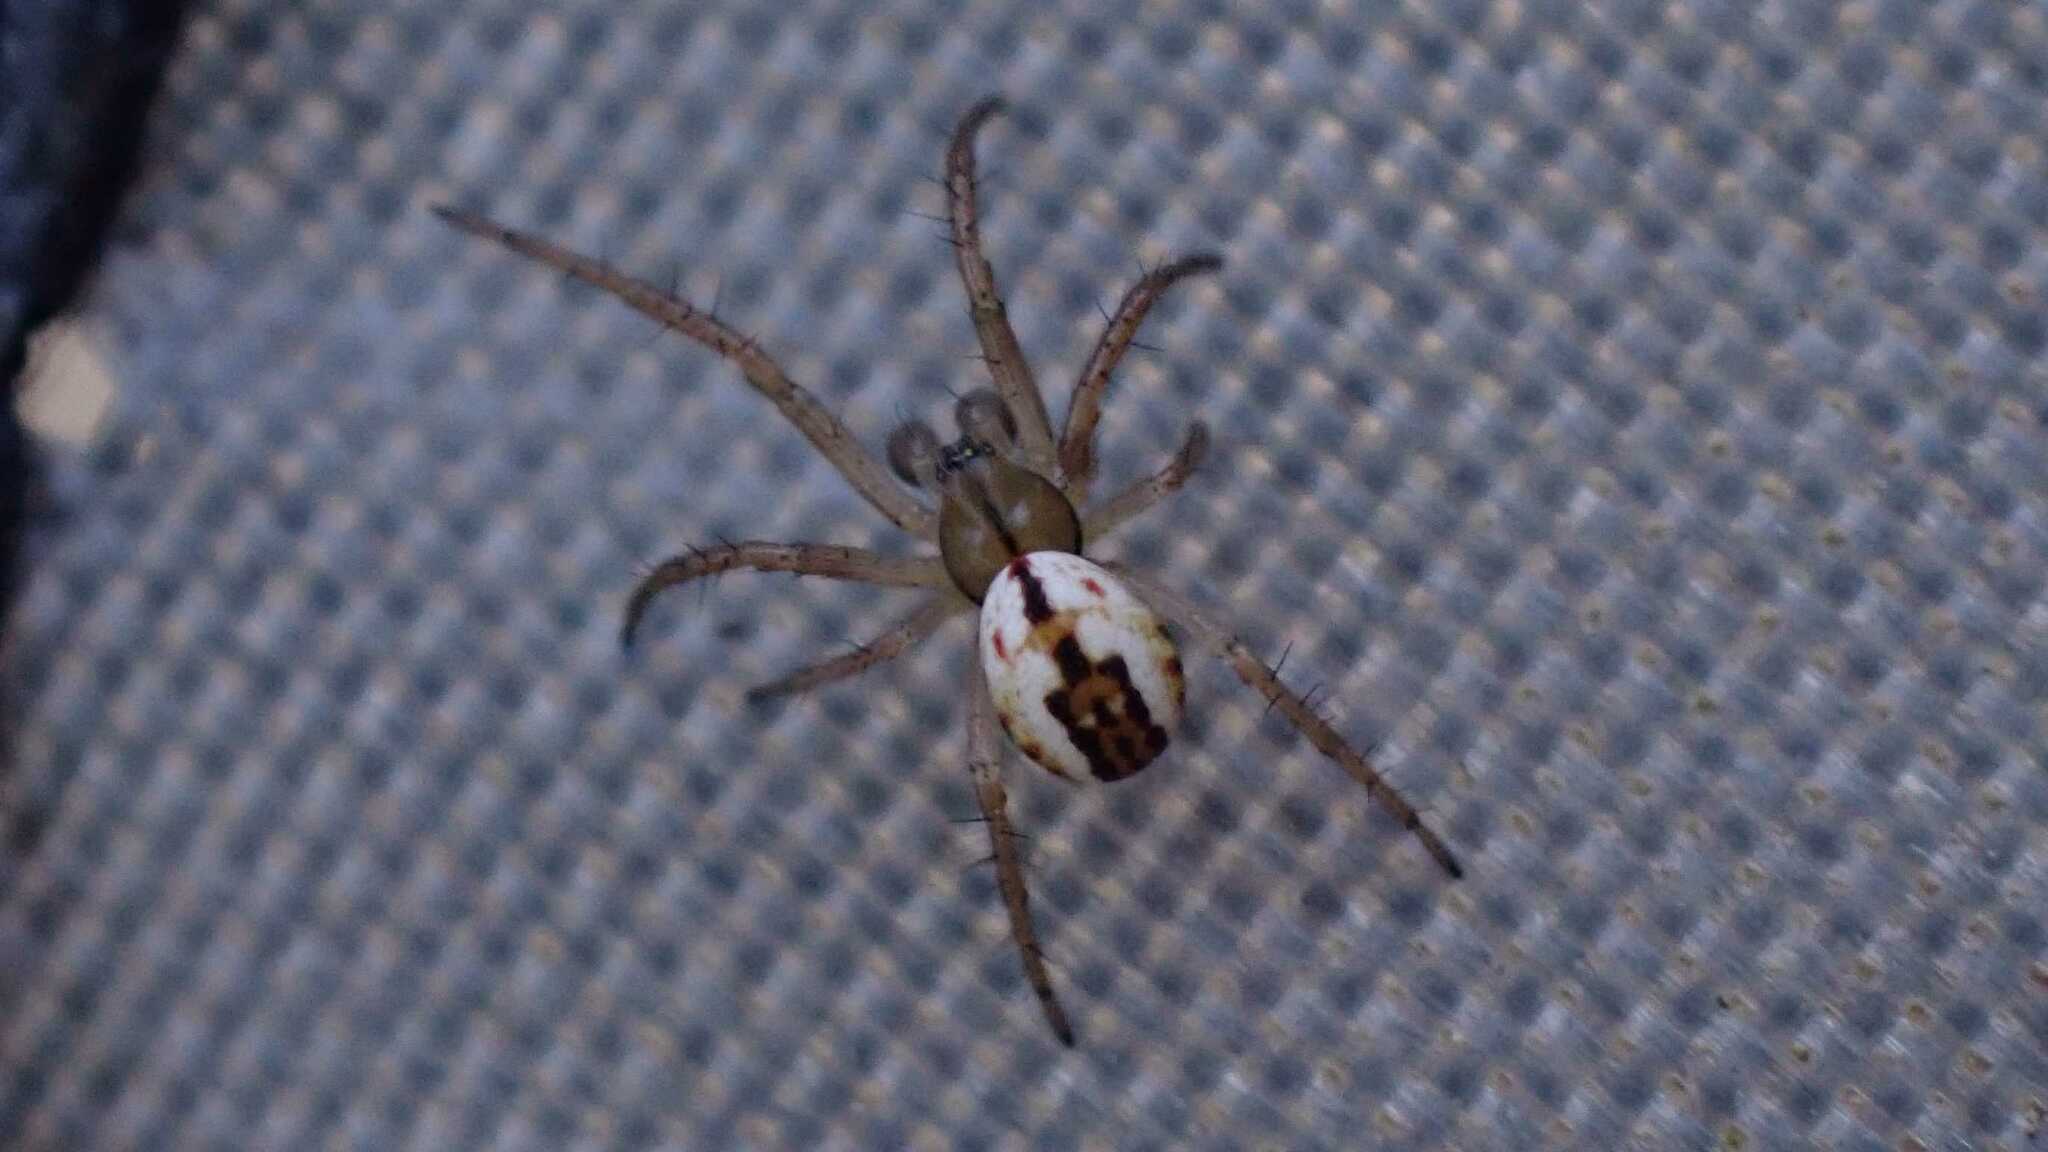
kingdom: Animalia
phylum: Arthropoda
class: Arachnida
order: Araneae
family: Araneidae
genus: Mangora
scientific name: Mangora acalypha
